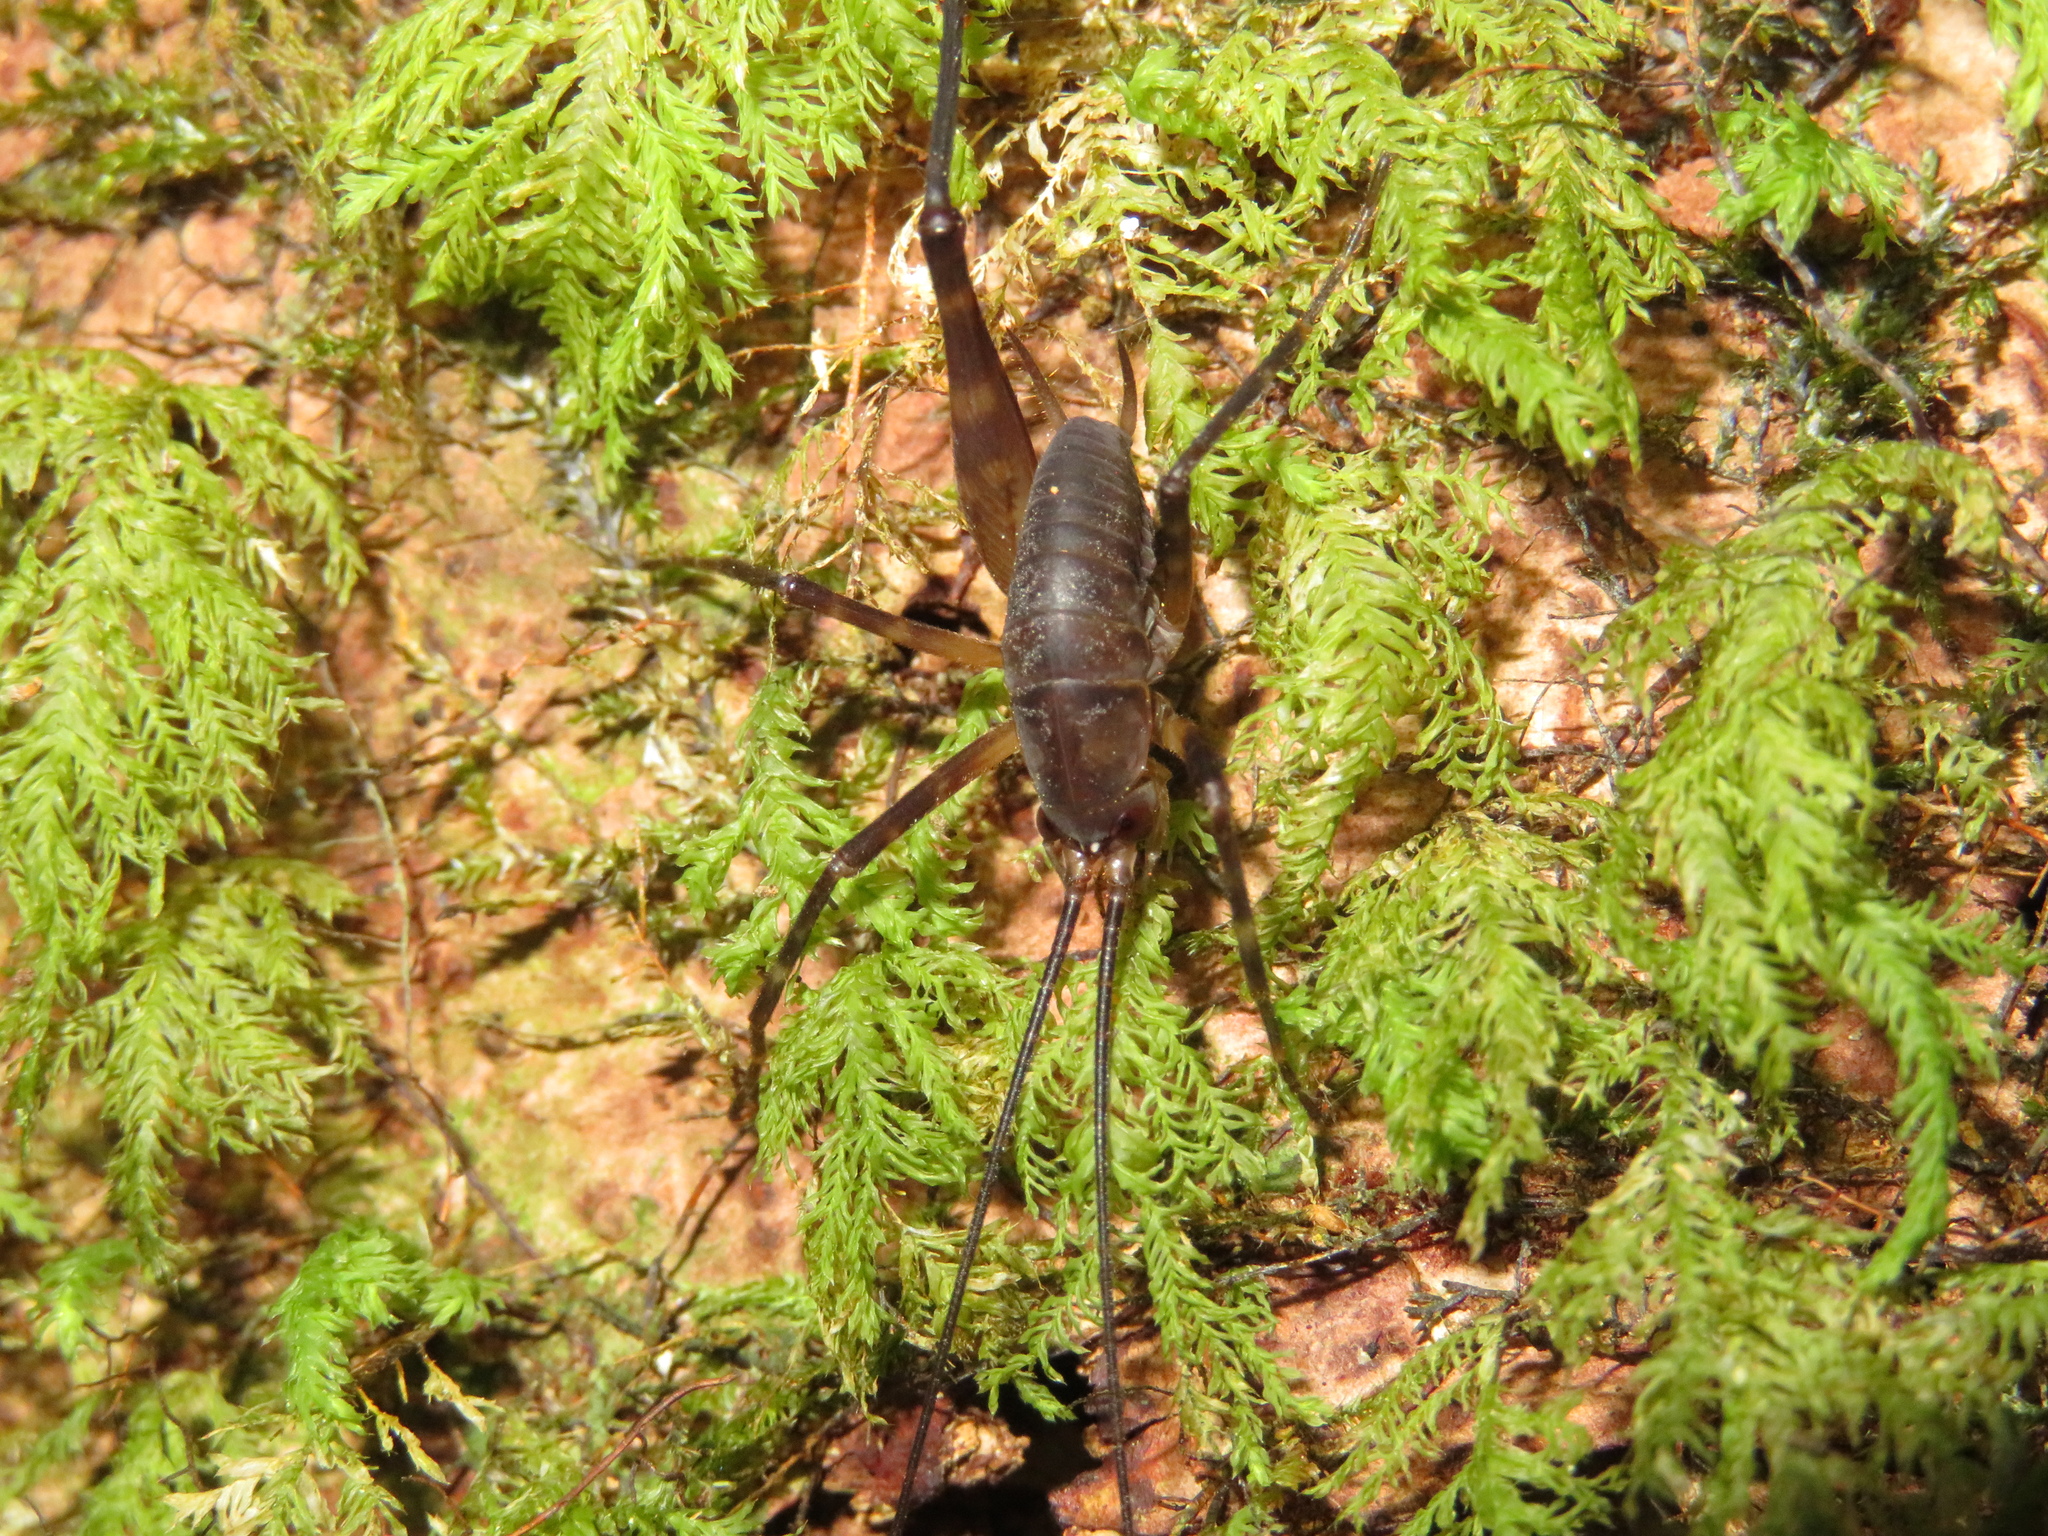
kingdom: Animalia
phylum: Arthropoda
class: Insecta
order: Orthoptera
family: Rhaphidophoridae
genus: Pachyrhamma
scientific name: Pachyrhamma longipes
